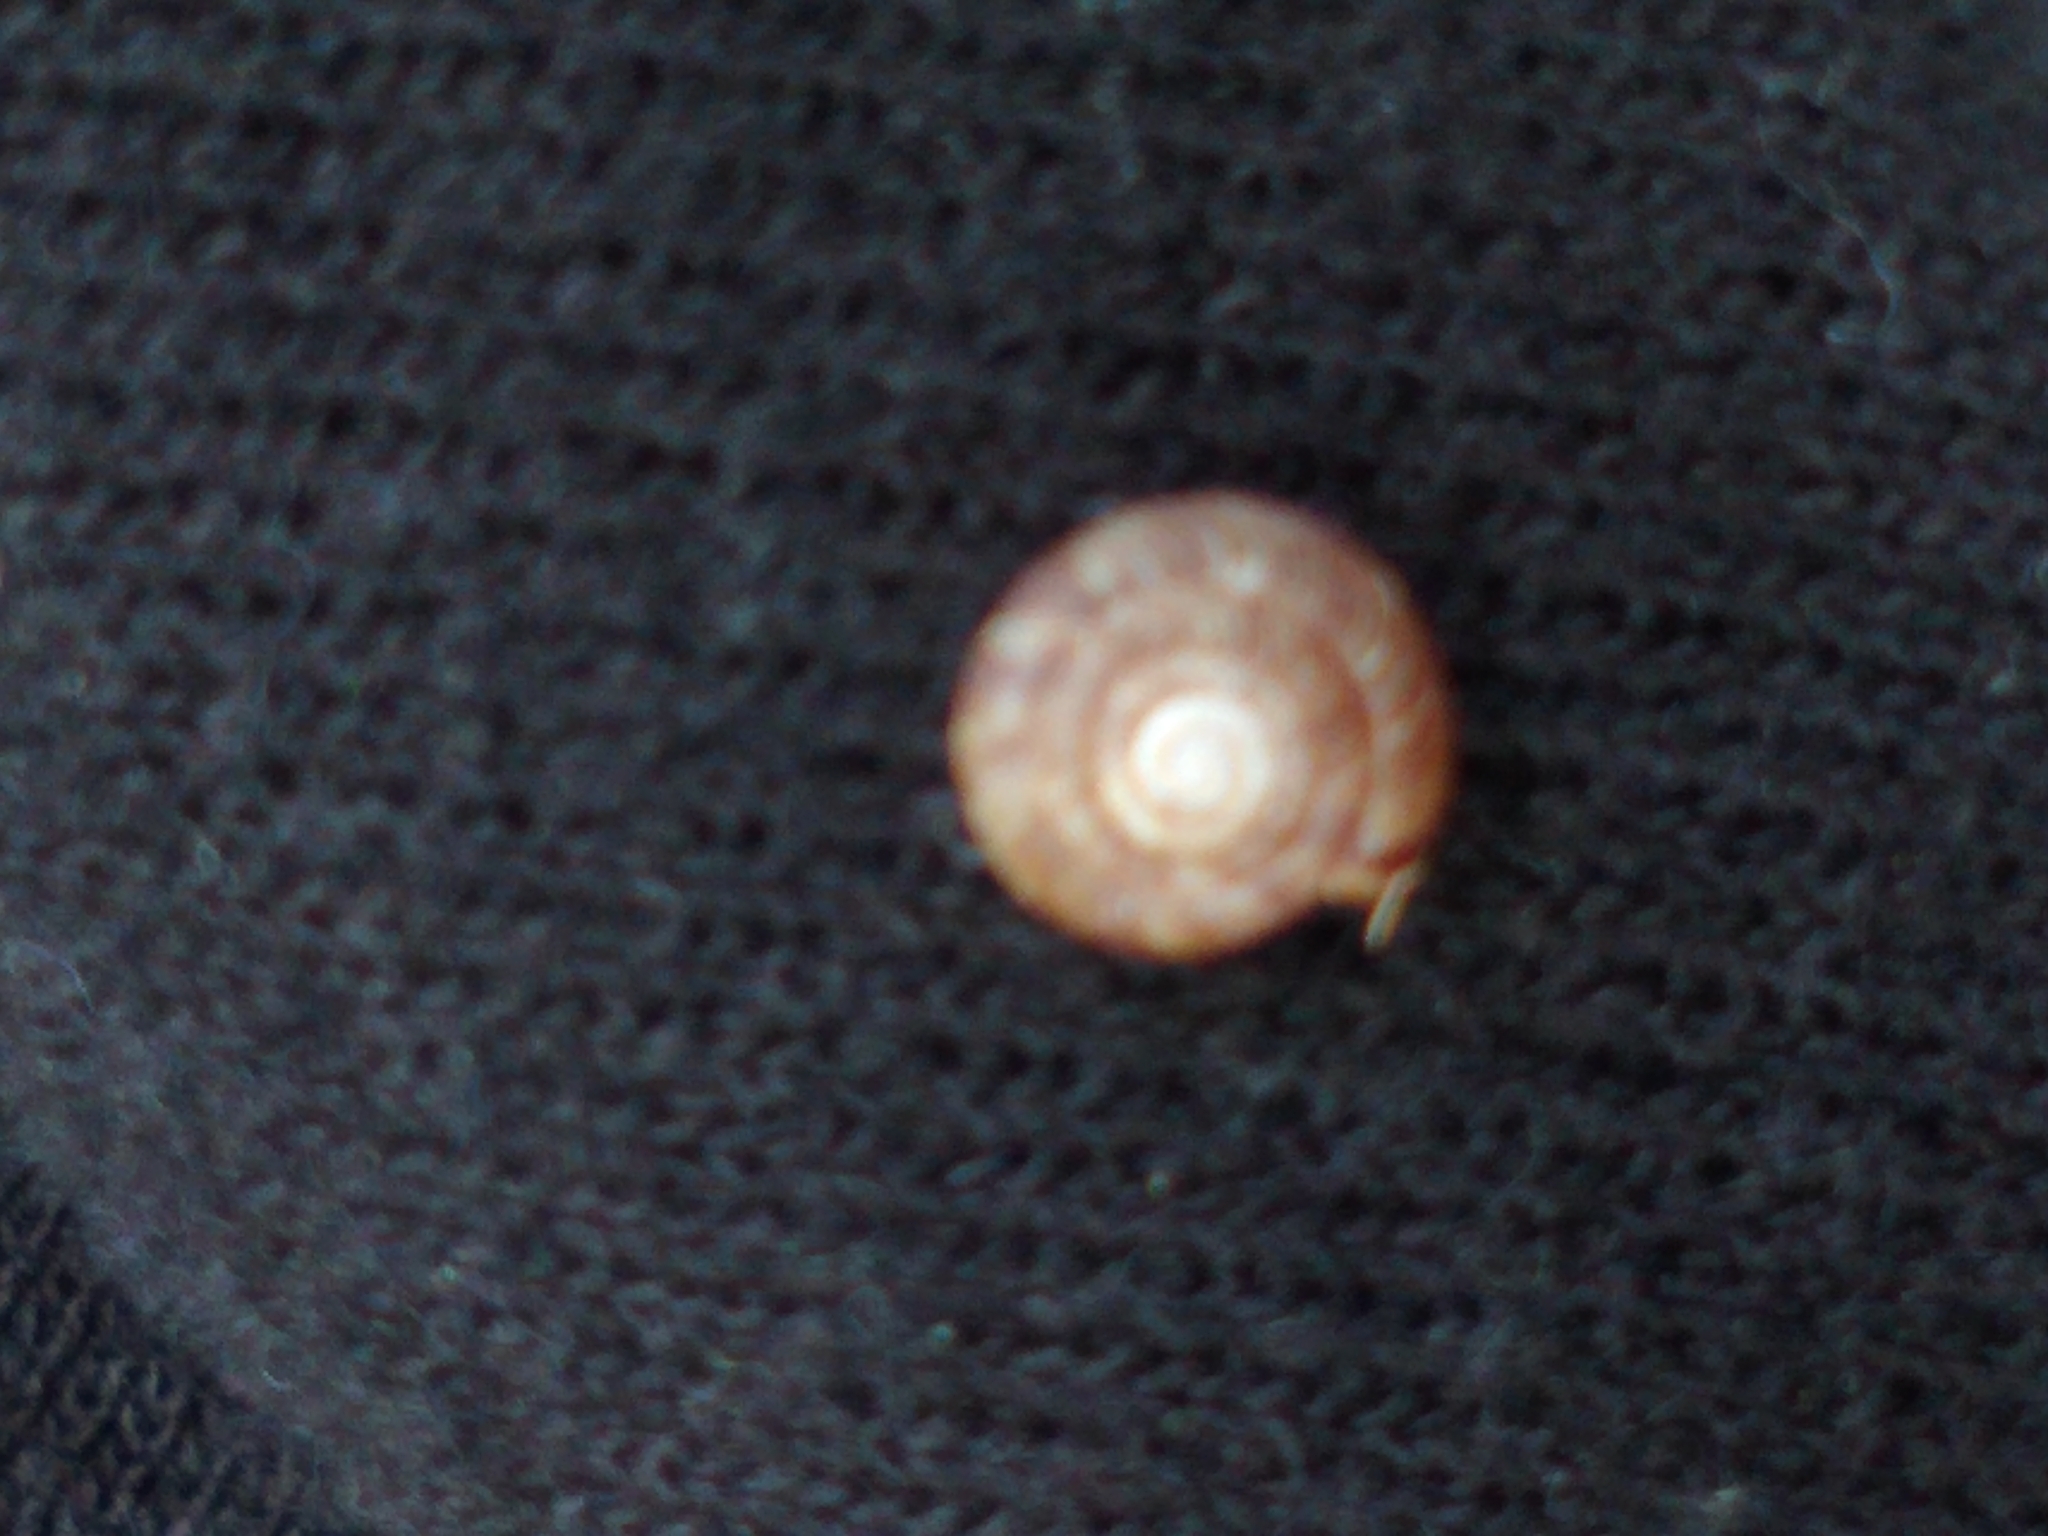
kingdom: Animalia
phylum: Mollusca
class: Gastropoda
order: Stylommatophora
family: Discidae
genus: Discus
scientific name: Discus rotundatus
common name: Rounded snail
